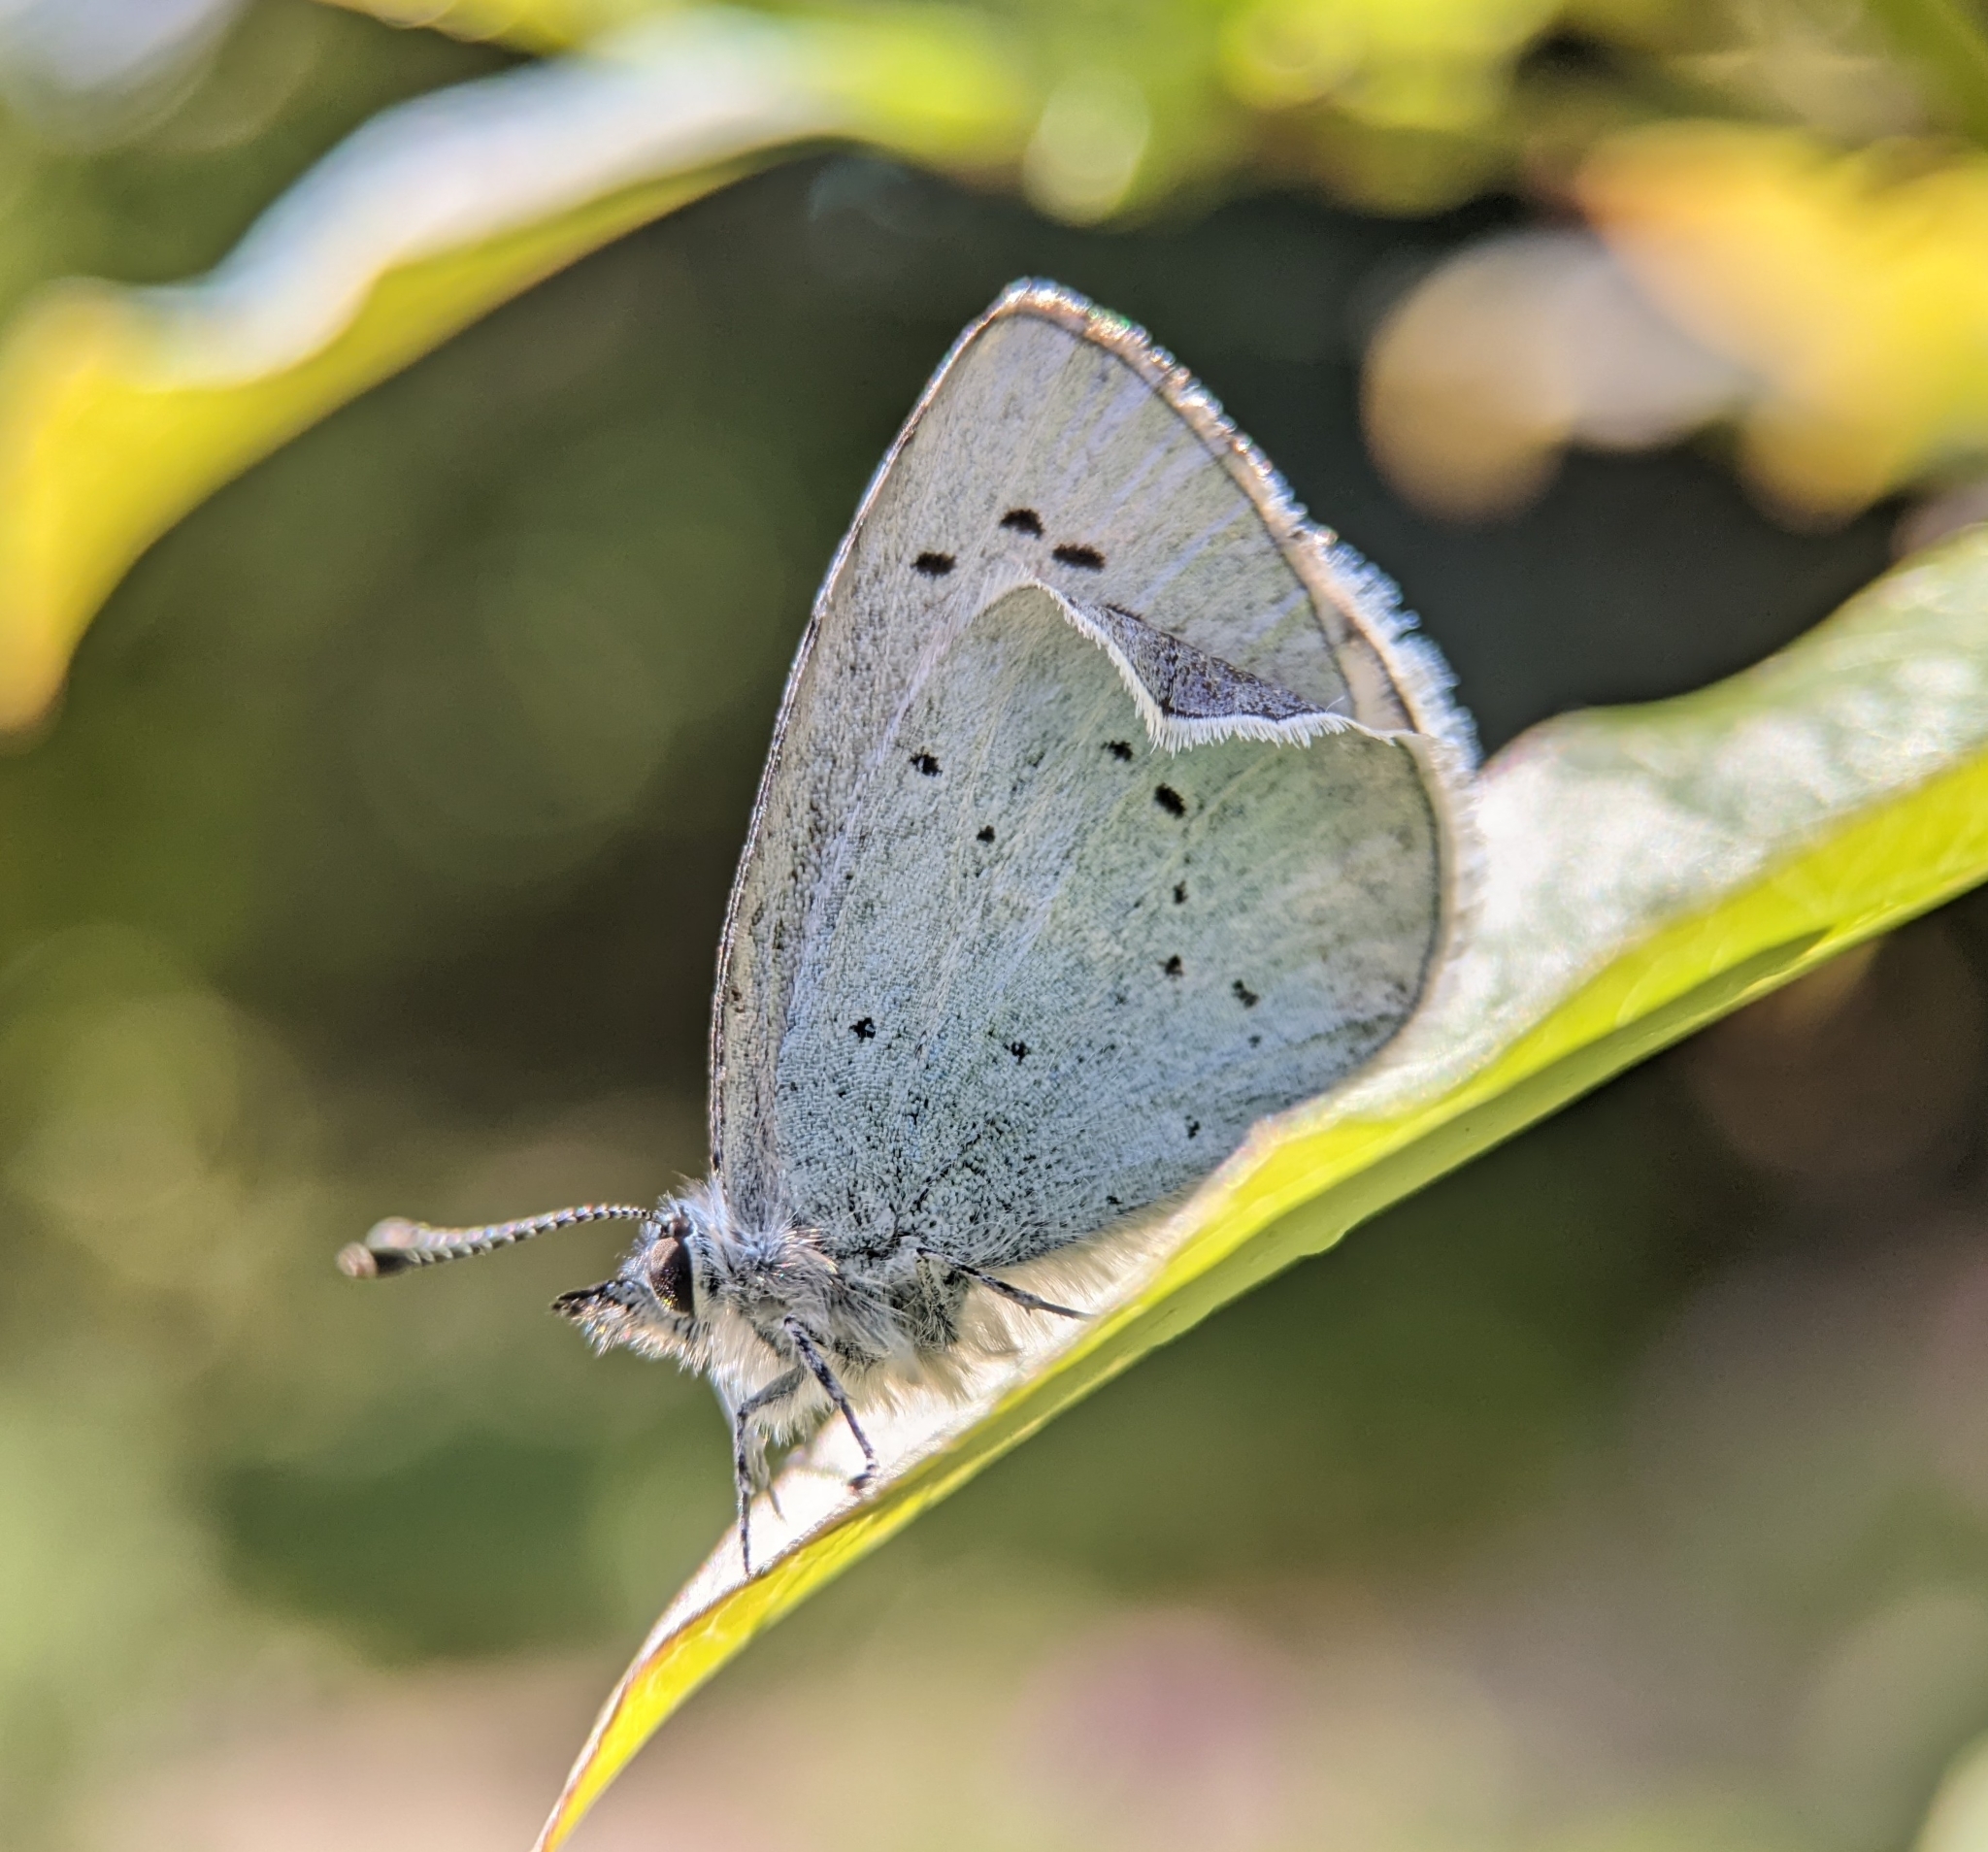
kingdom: Animalia
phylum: Arthropoda
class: Insecta
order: Lepidoptera
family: Lycaenidae
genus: Celastrina
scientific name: Celastrina argiolus
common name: Holly blue
